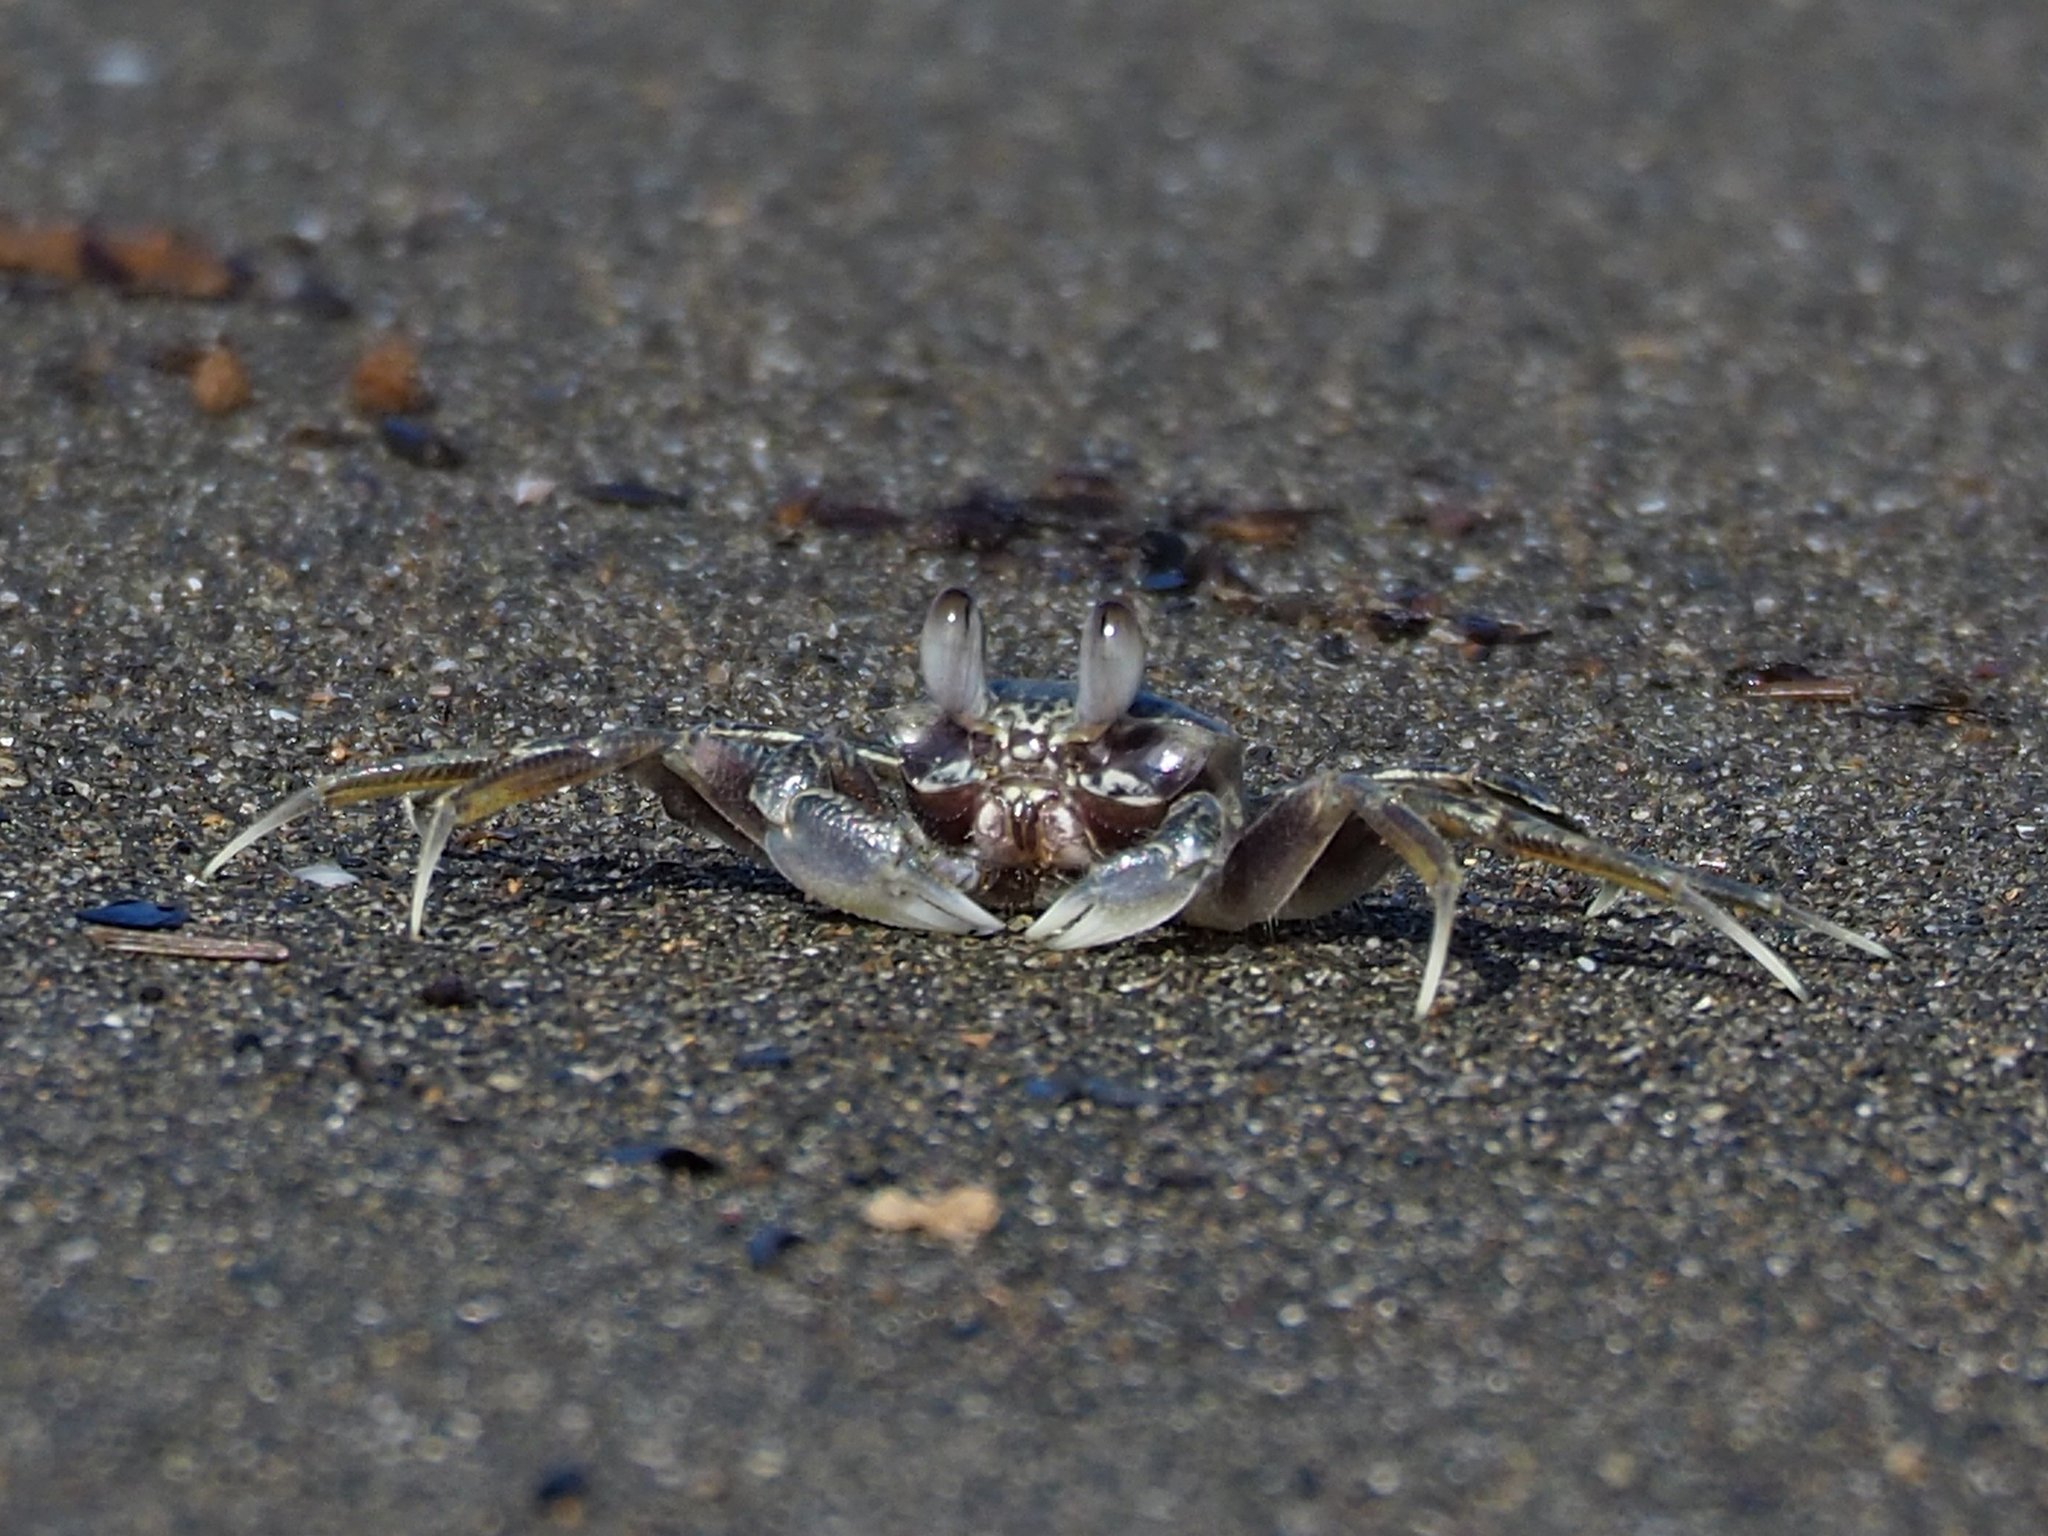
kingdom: Animalia
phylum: Arthropoda
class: Malacostraca
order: Decapoda
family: Ocypodidae
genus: Ocypode
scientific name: Ocypode ceratophthalmus
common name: Indo-pacific ghost crab
